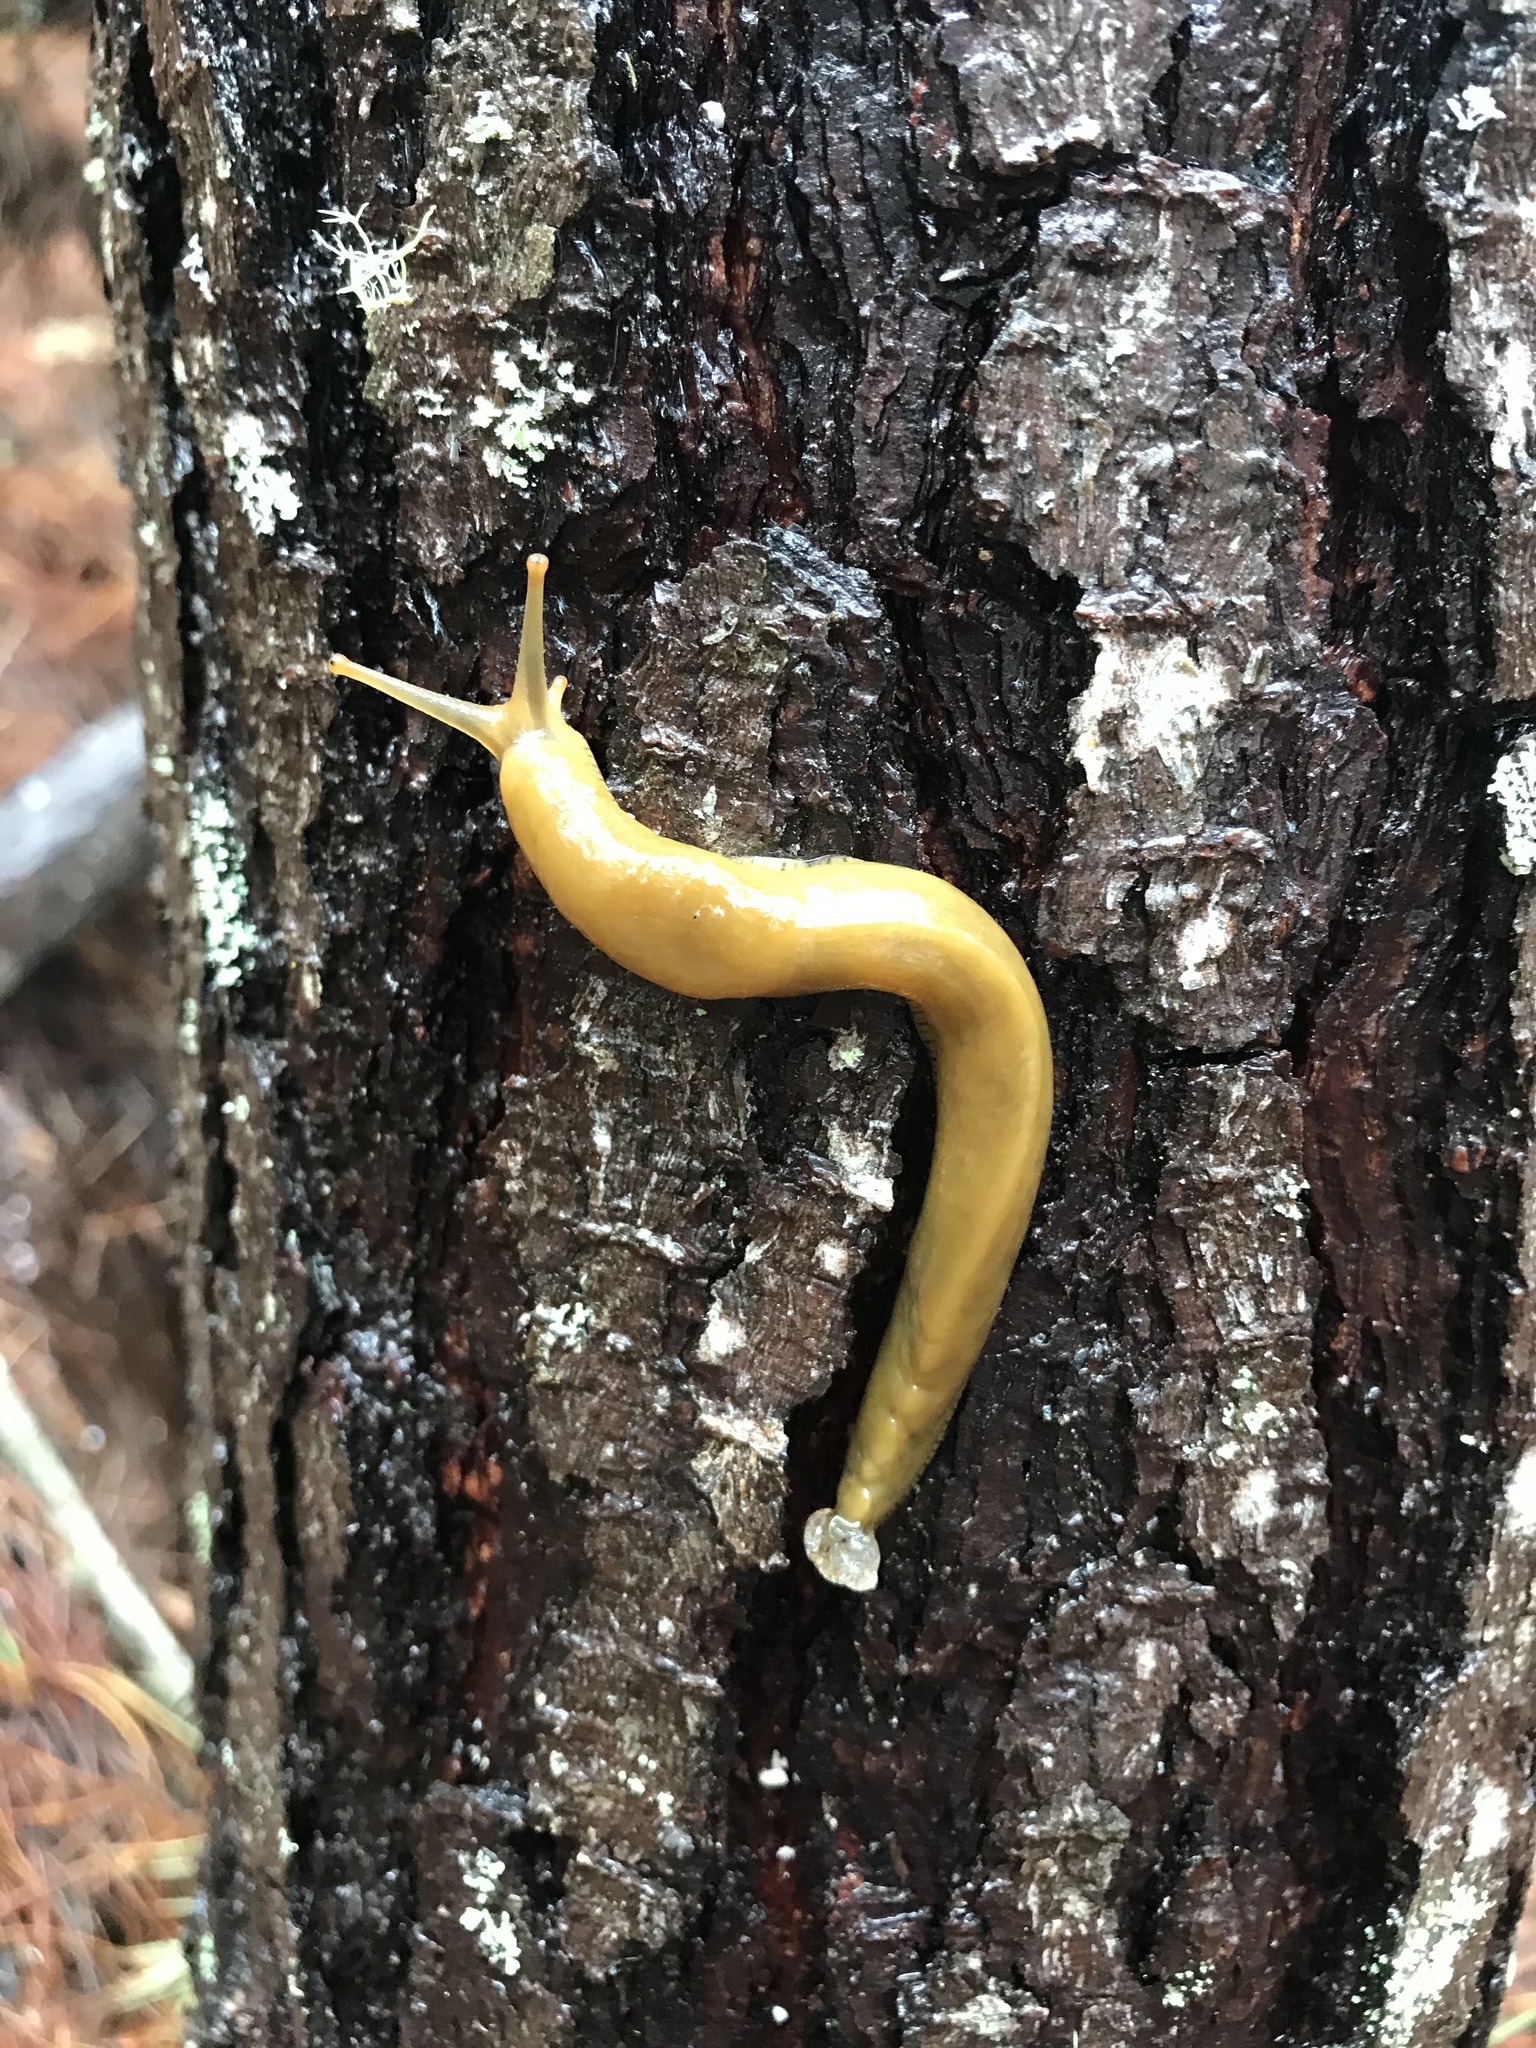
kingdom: Animalia
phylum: Mollusca
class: Gastropoda
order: Stylommatophora
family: Ariolimacidae
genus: Ariolimax
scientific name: Ariolimax buttoni
